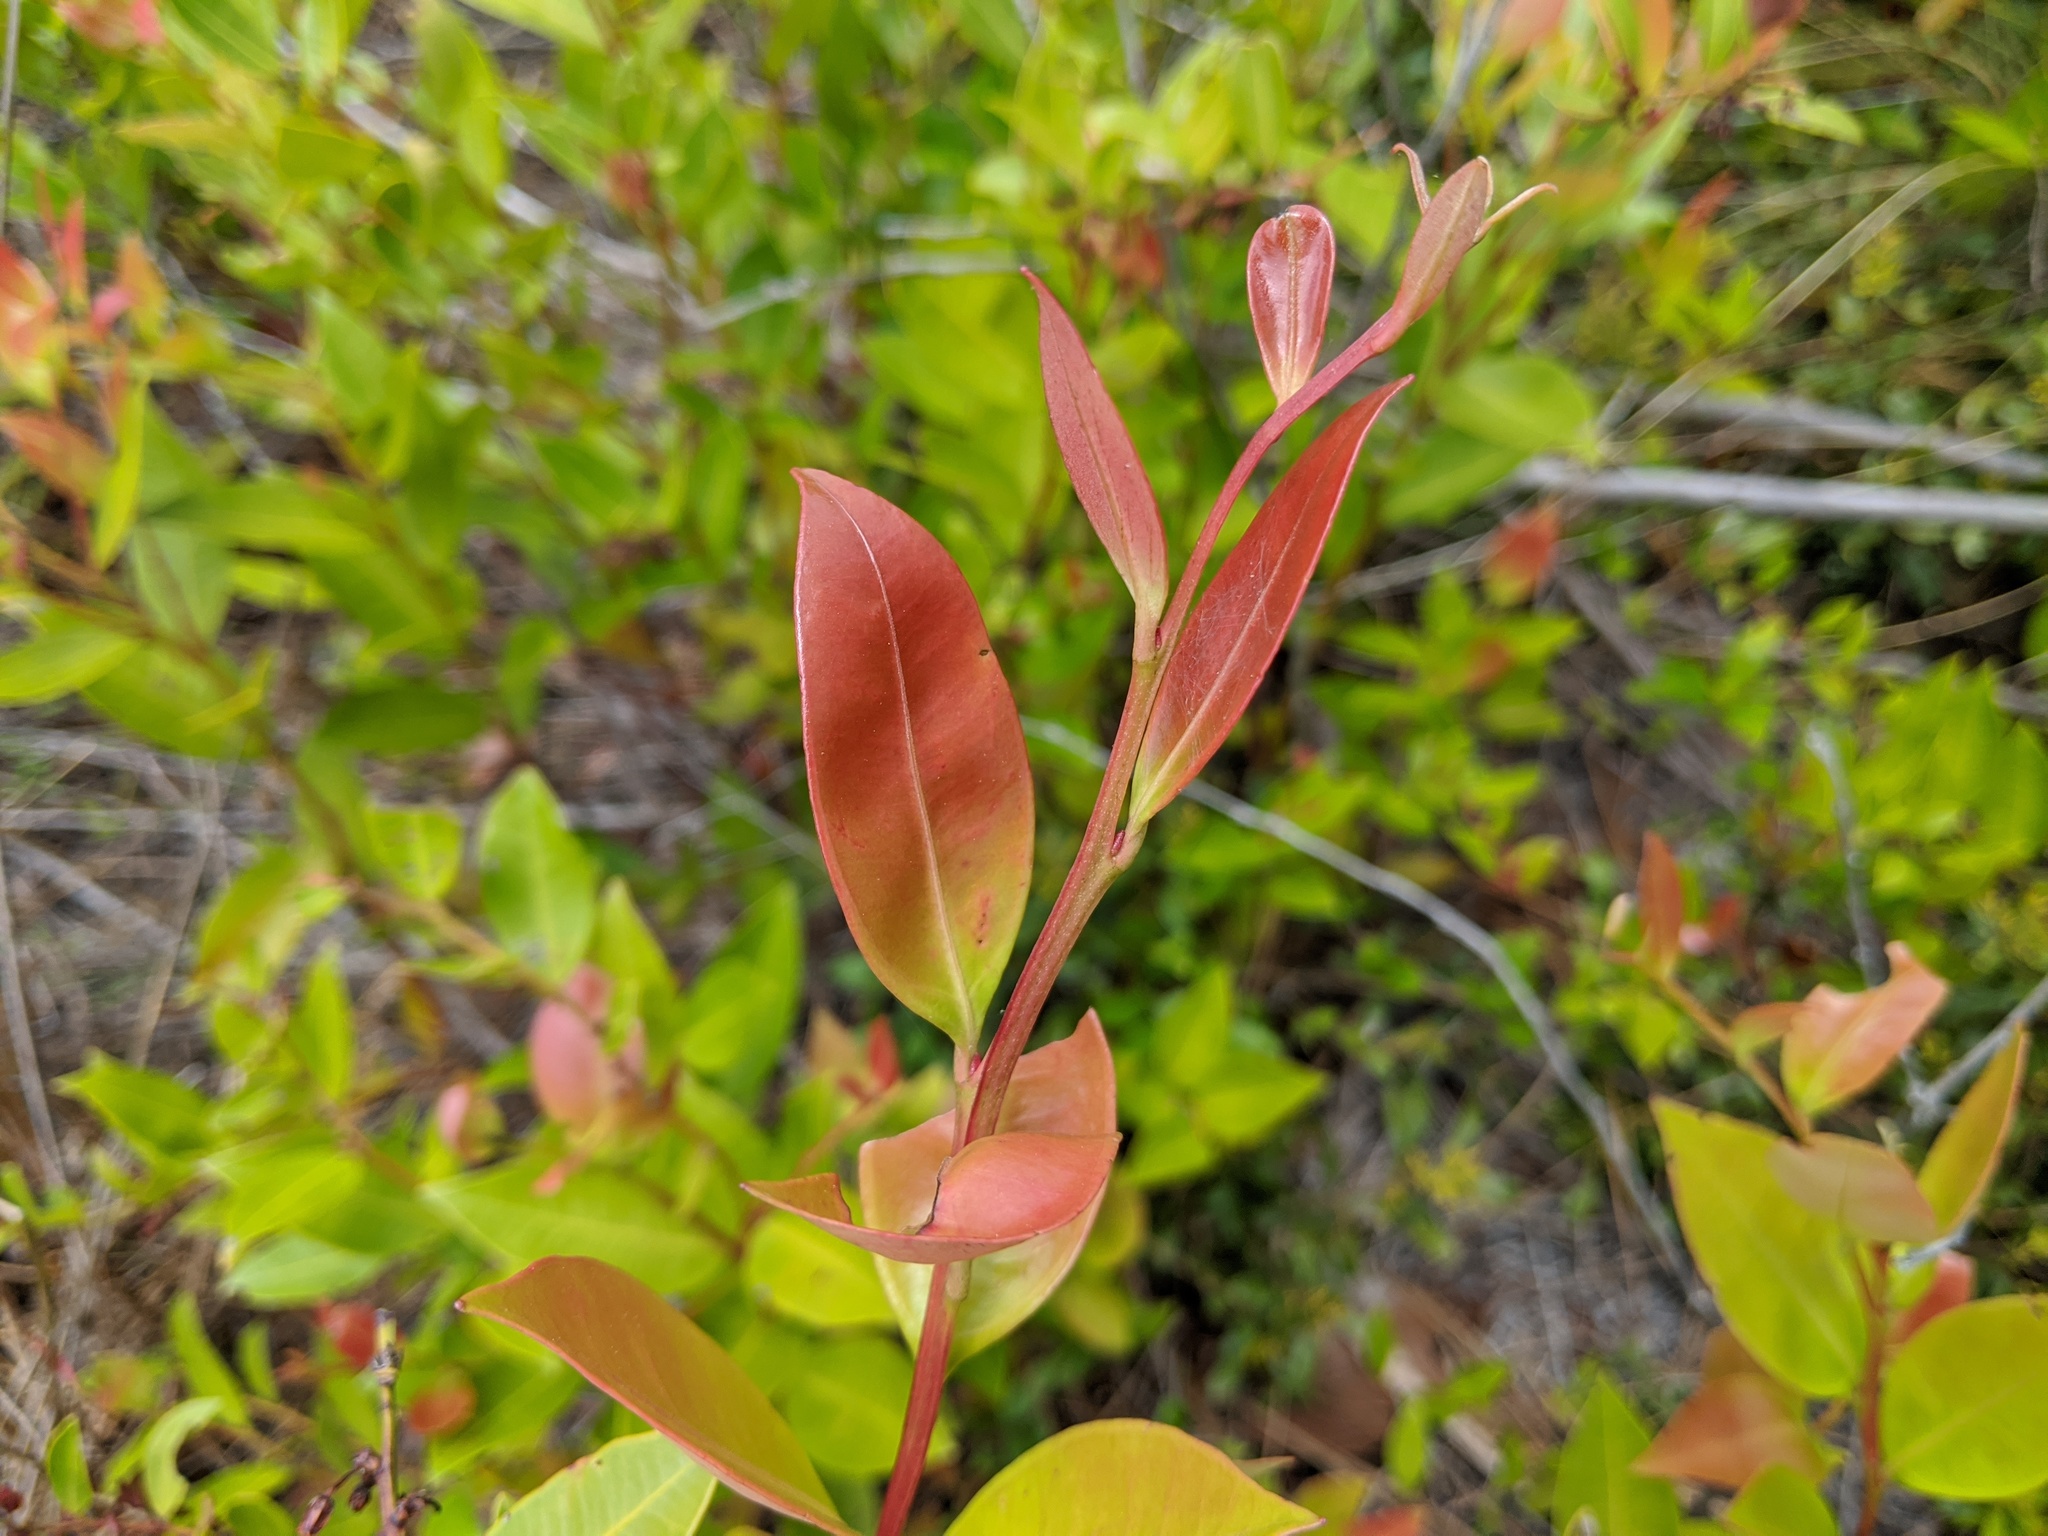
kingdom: Plantae
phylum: Tracheophyta
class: Magnoliopsida
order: Ericales
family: Ericaceae
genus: Lyonia
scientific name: Lyonia lucida
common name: Fetterbush
